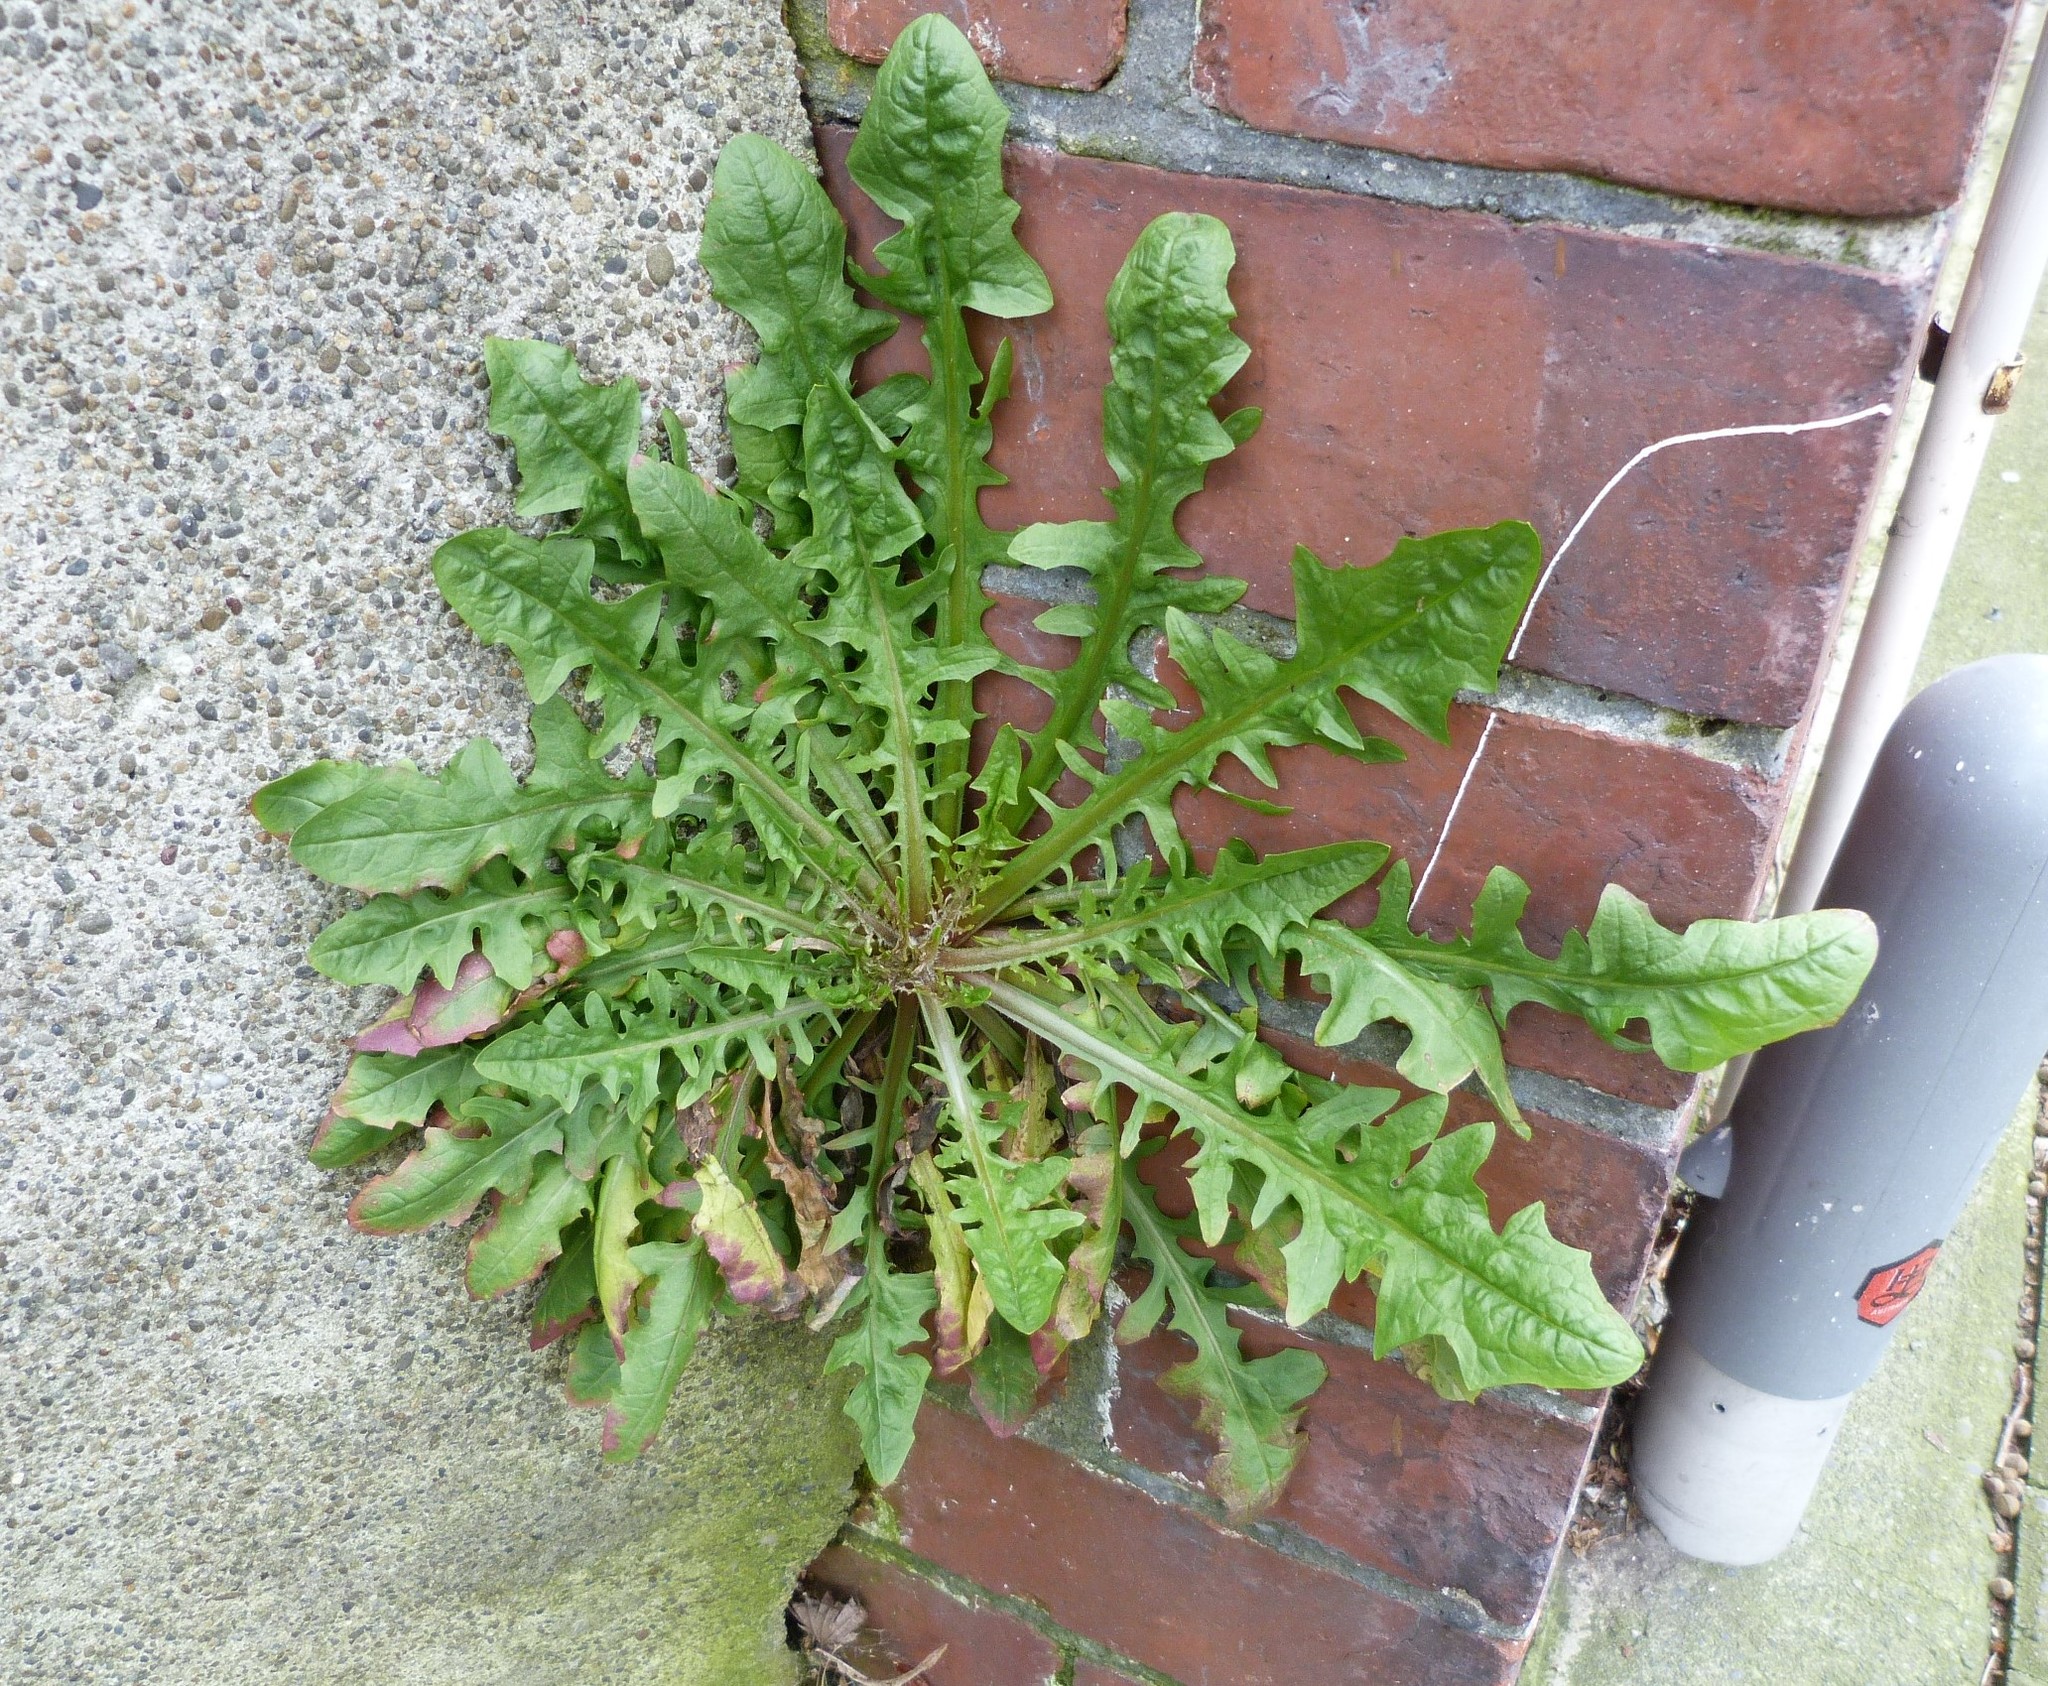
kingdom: Plantae
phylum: Tracheophyta
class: Magnoliopsida
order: Asterales
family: Asteraceae
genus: Crepis
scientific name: Crepis capillaris
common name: Smooth hawksbeard
